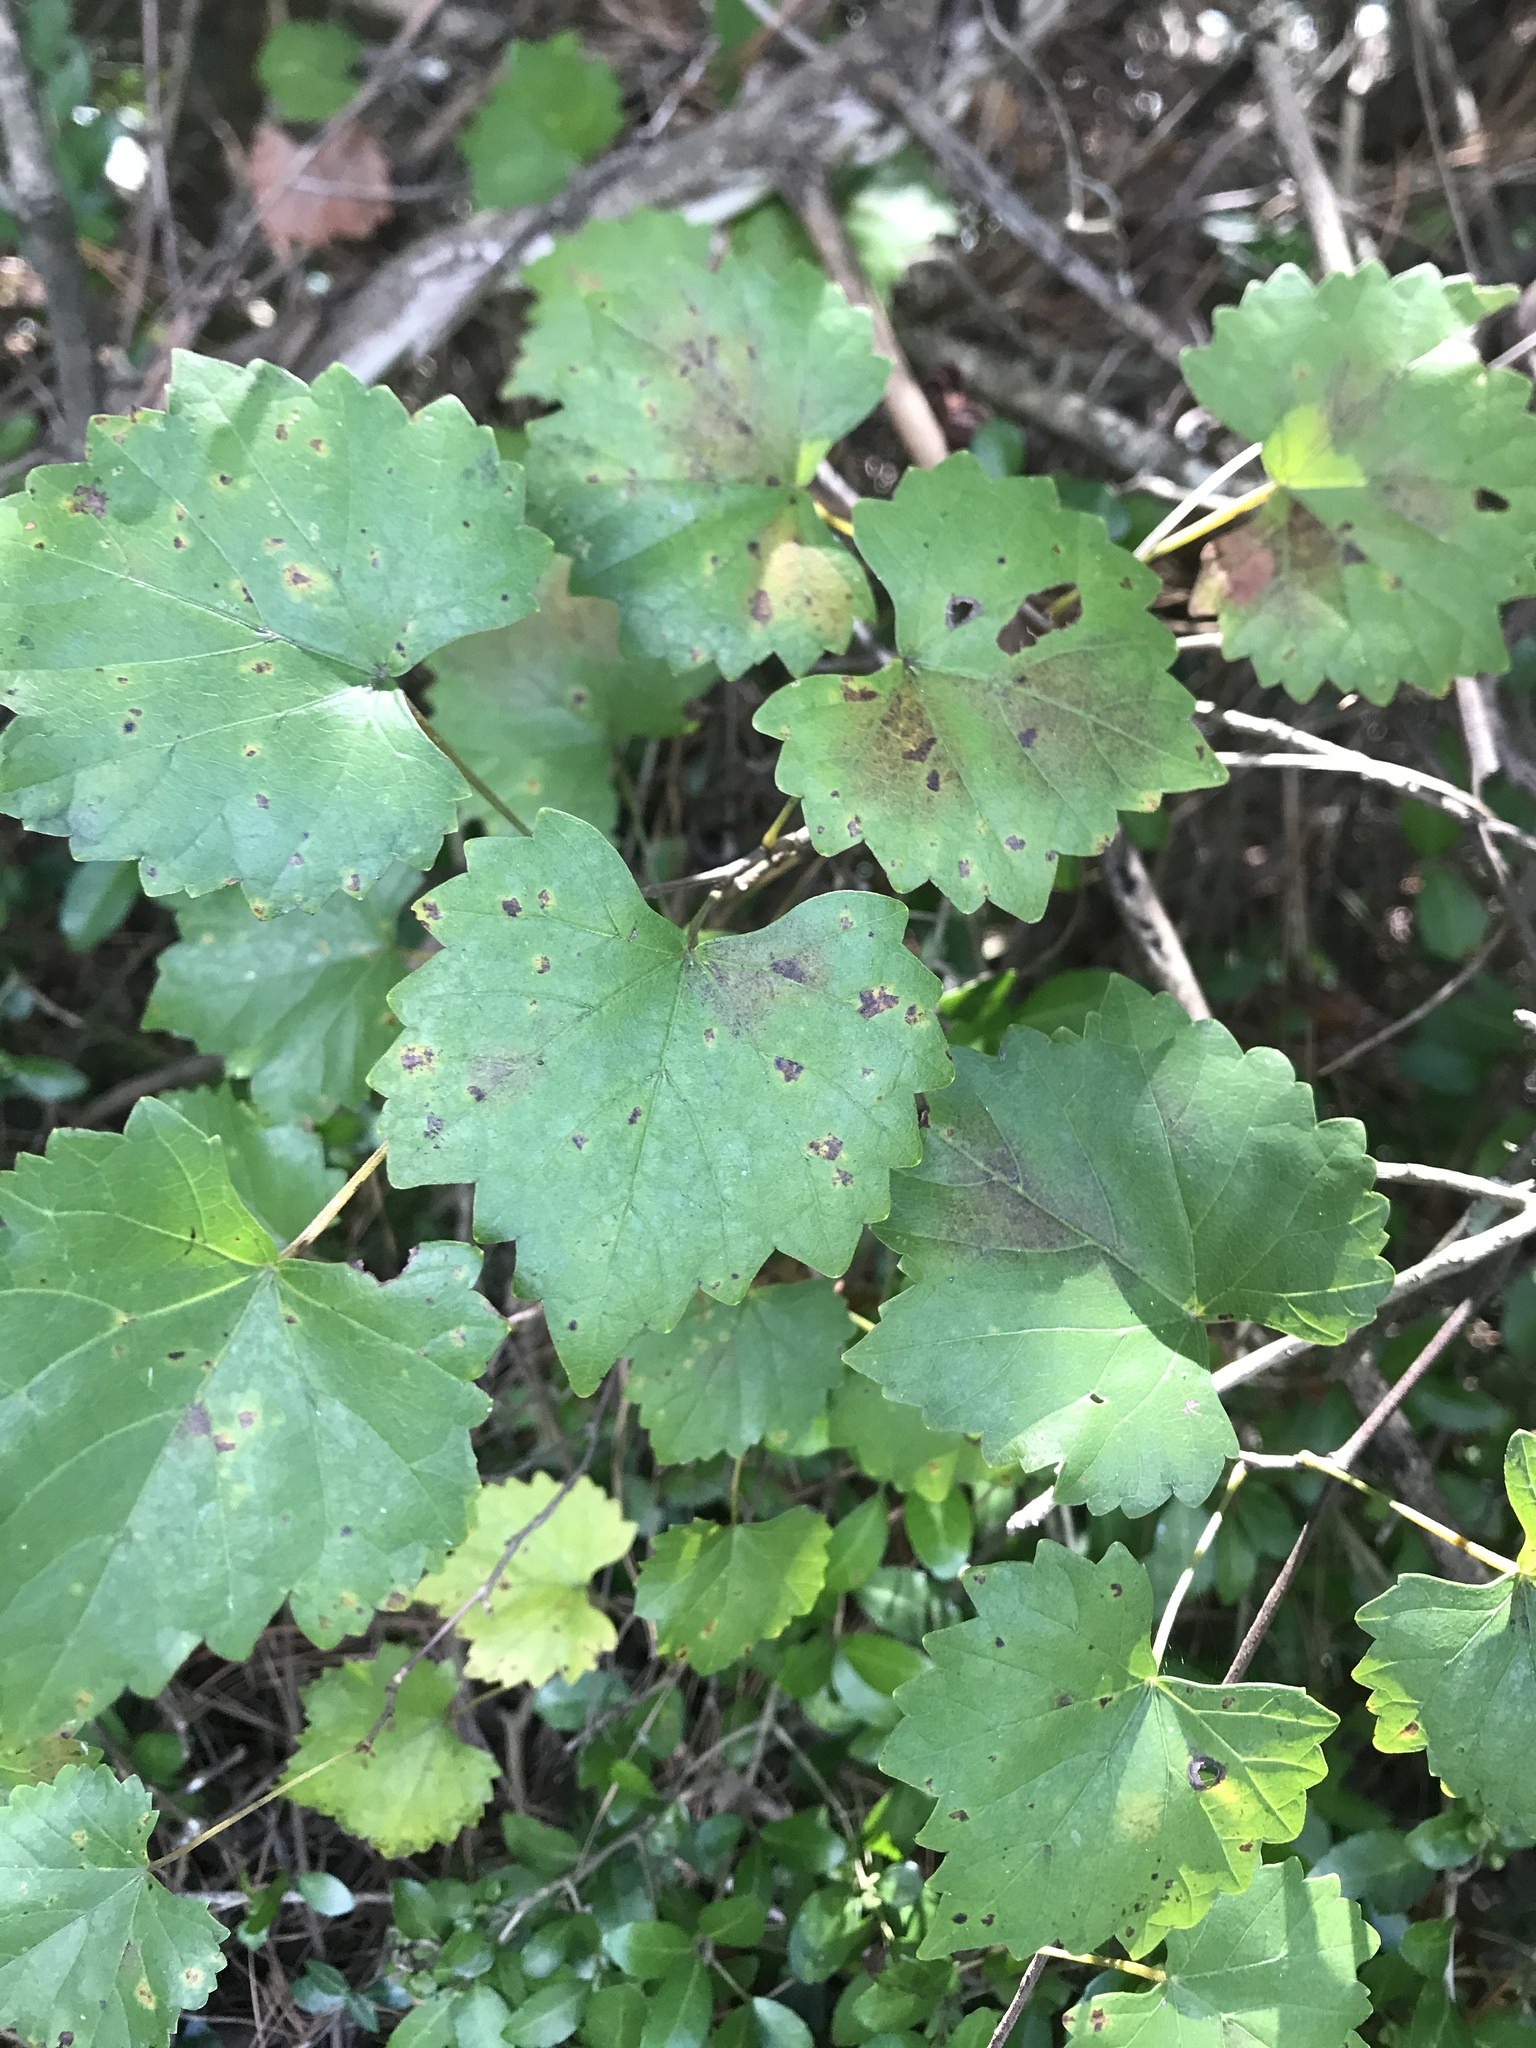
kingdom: Plantae
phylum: Tracheophyta
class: Magnoliopsida
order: Vitales
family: Vitaceae
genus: Vitis
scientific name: Vitis rotundifolia
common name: Muscadine grape
